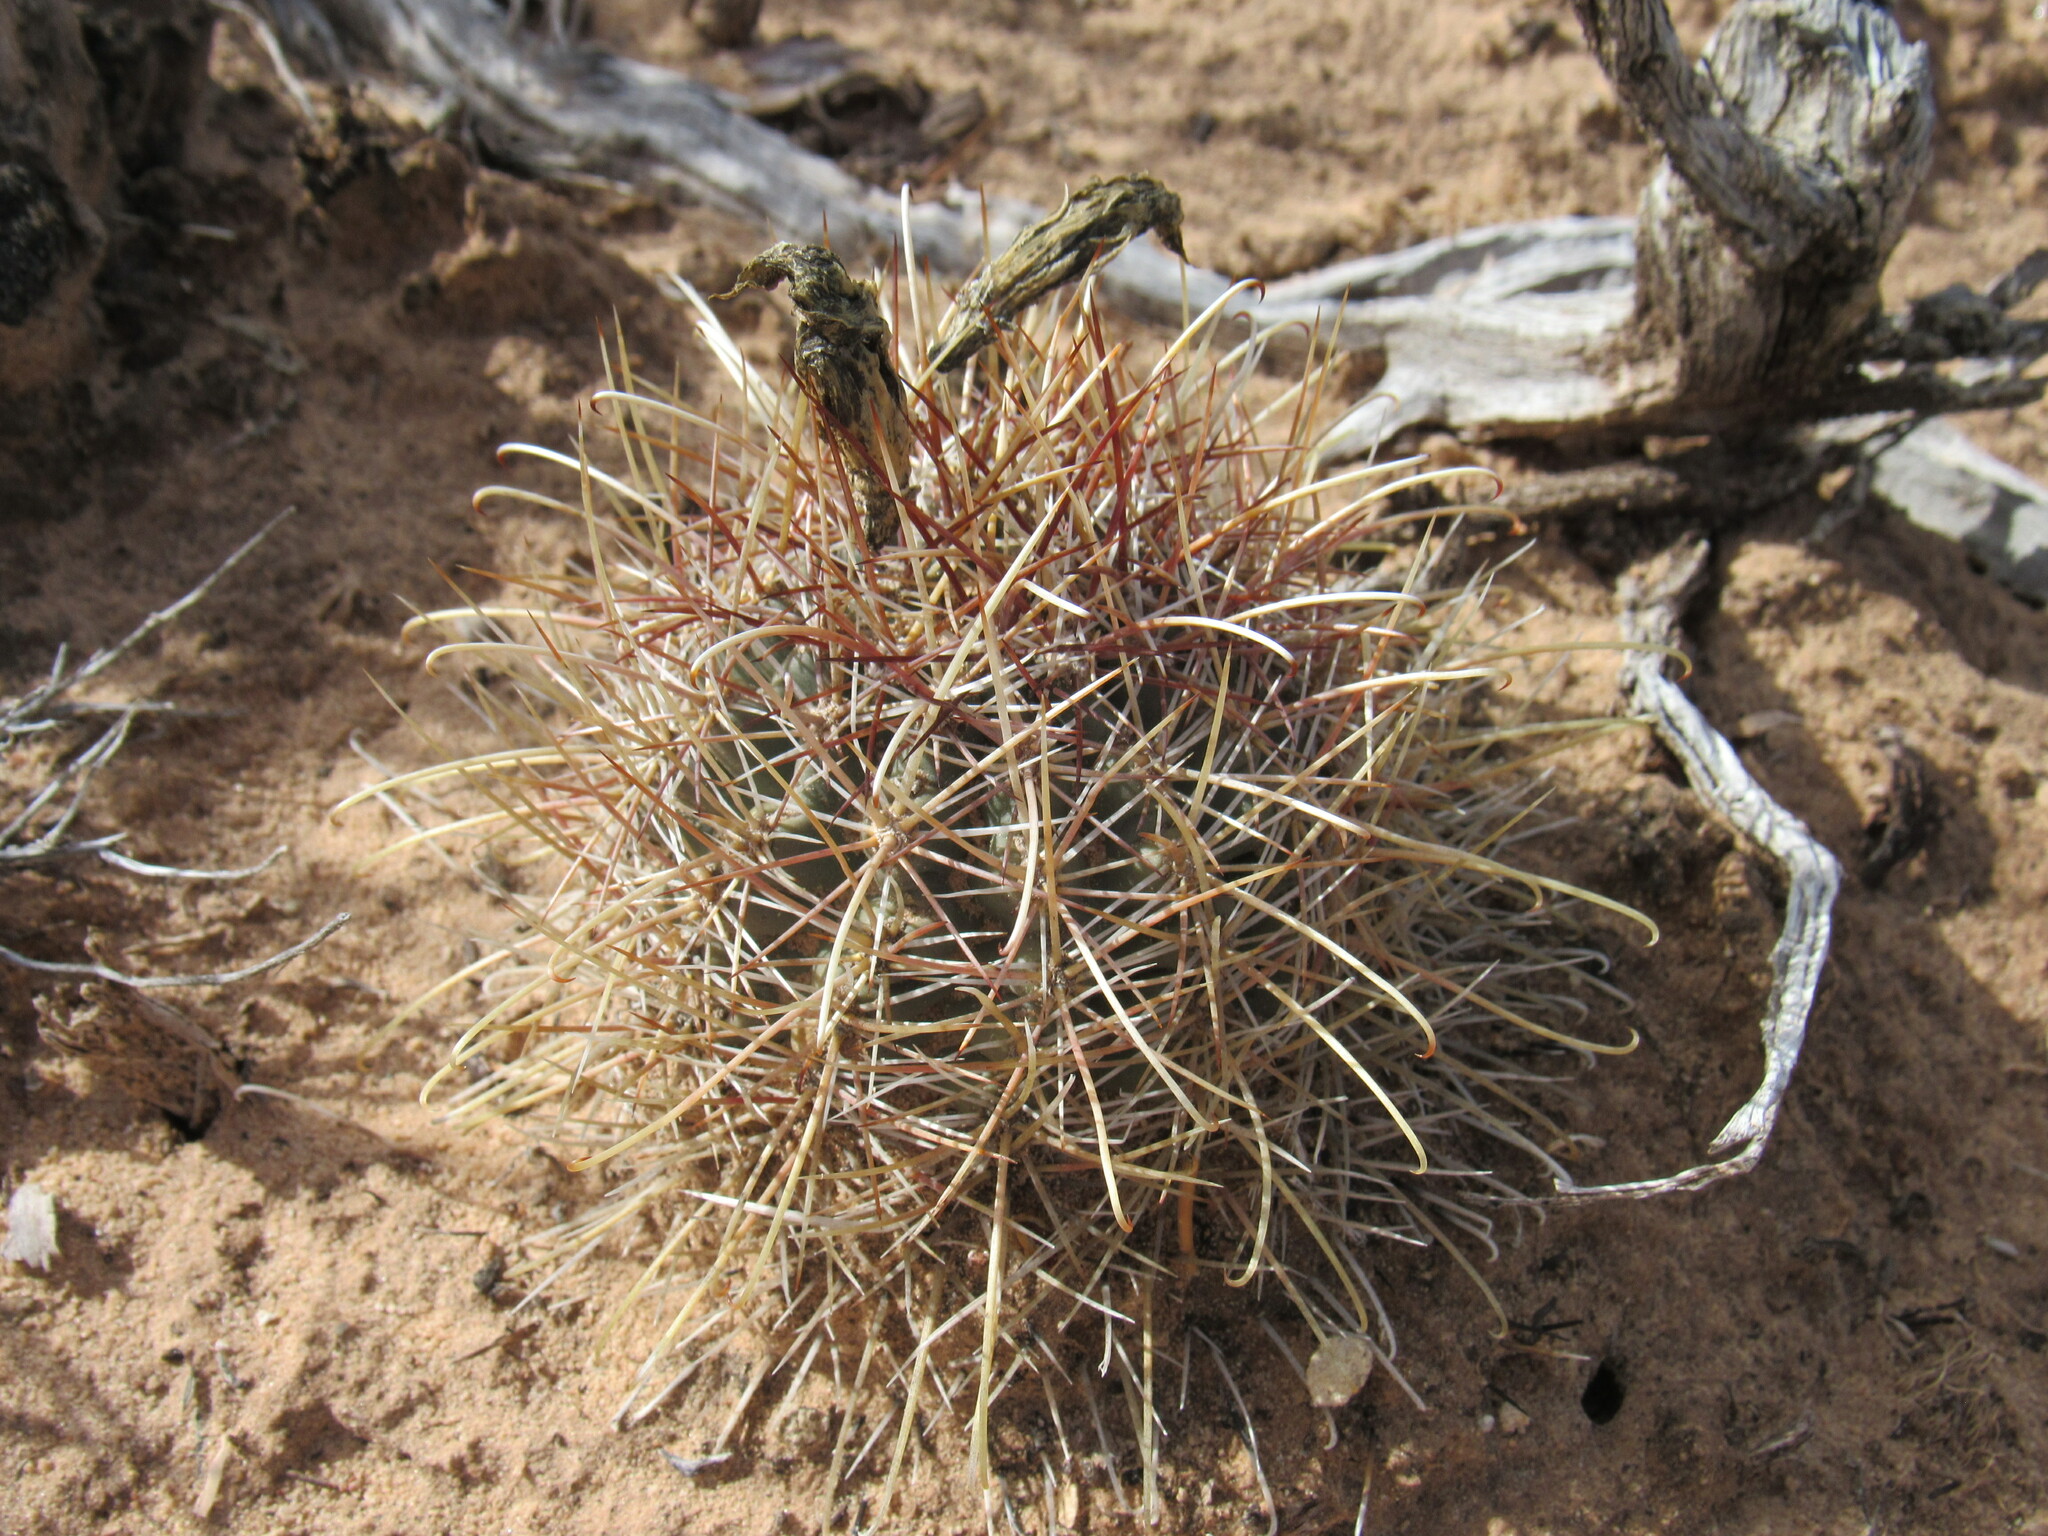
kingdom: Plantae
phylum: Tracheophyta
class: Magnoliopsida
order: Caryophyllales
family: Cactaceae
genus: Sclerocactus
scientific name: Sclerocactus parviflorus
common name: Small-flower fishhook cactus
